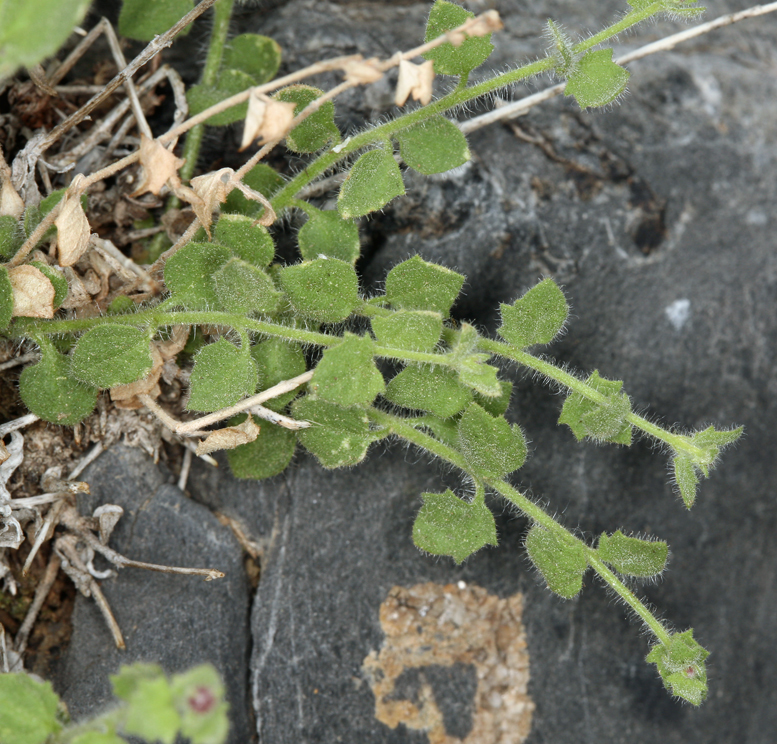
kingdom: Plantae
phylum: Tracheophyta
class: Magnoliopsida
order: Asterales
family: Asteraceae
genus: Laphamia
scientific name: Laphamia inyoensis
